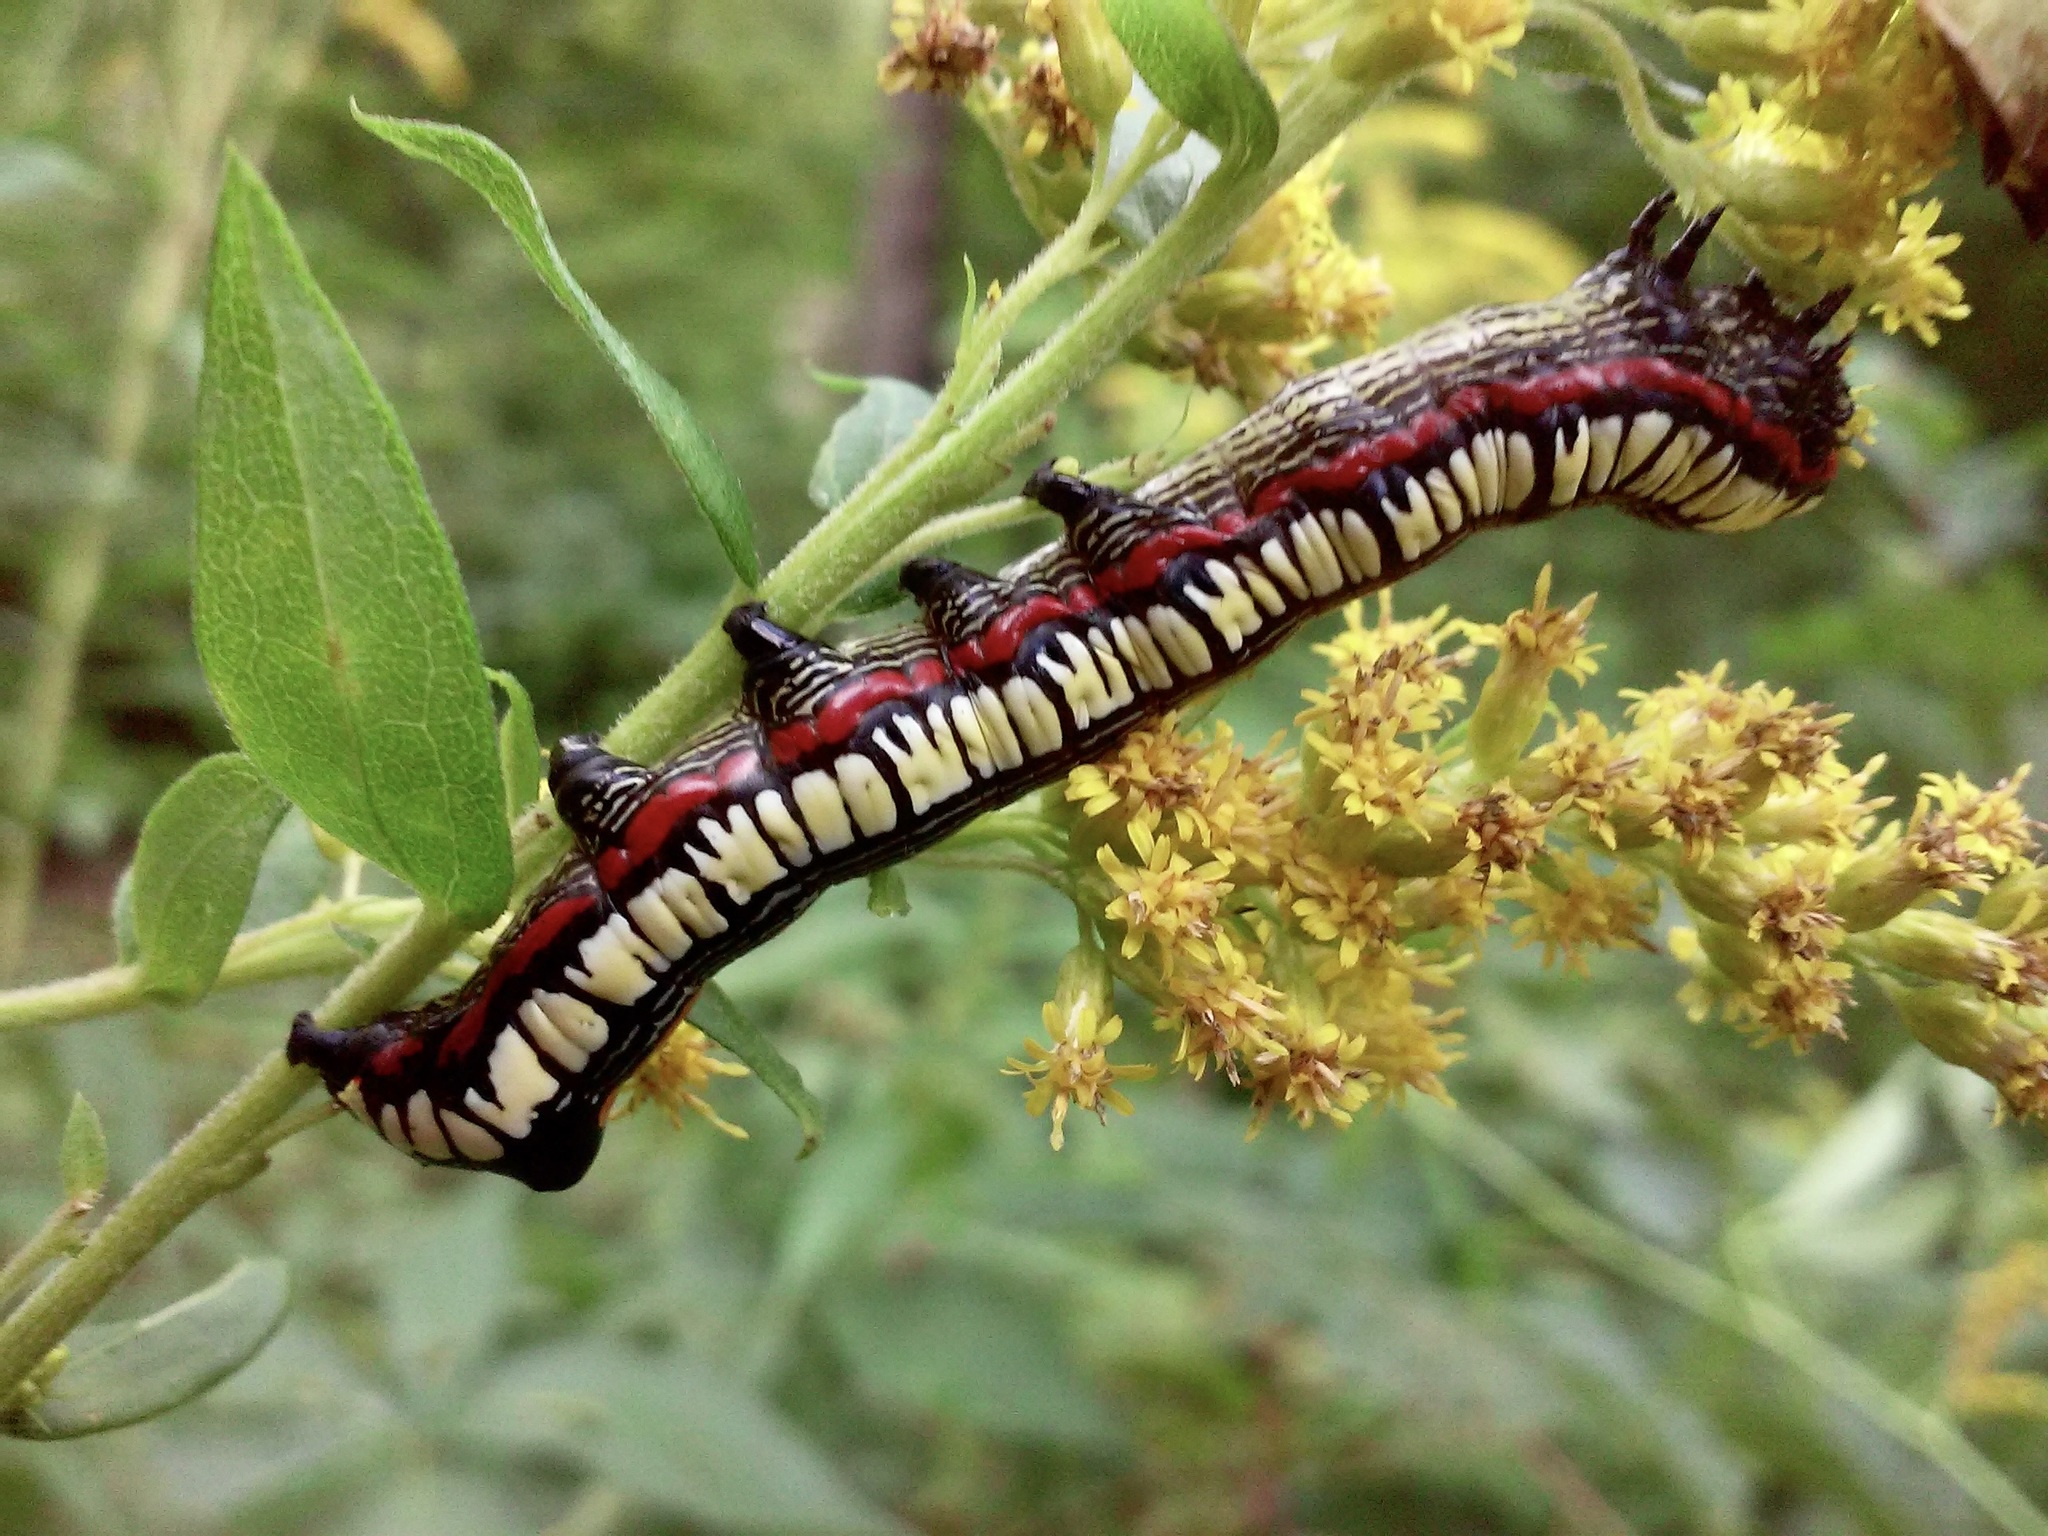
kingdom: Animalia
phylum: Arthropoda
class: Insecta
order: Lepidoptera
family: Noctuidae
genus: Cucullia
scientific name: Cucullia convexipennis
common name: Brown-hooded owlet
